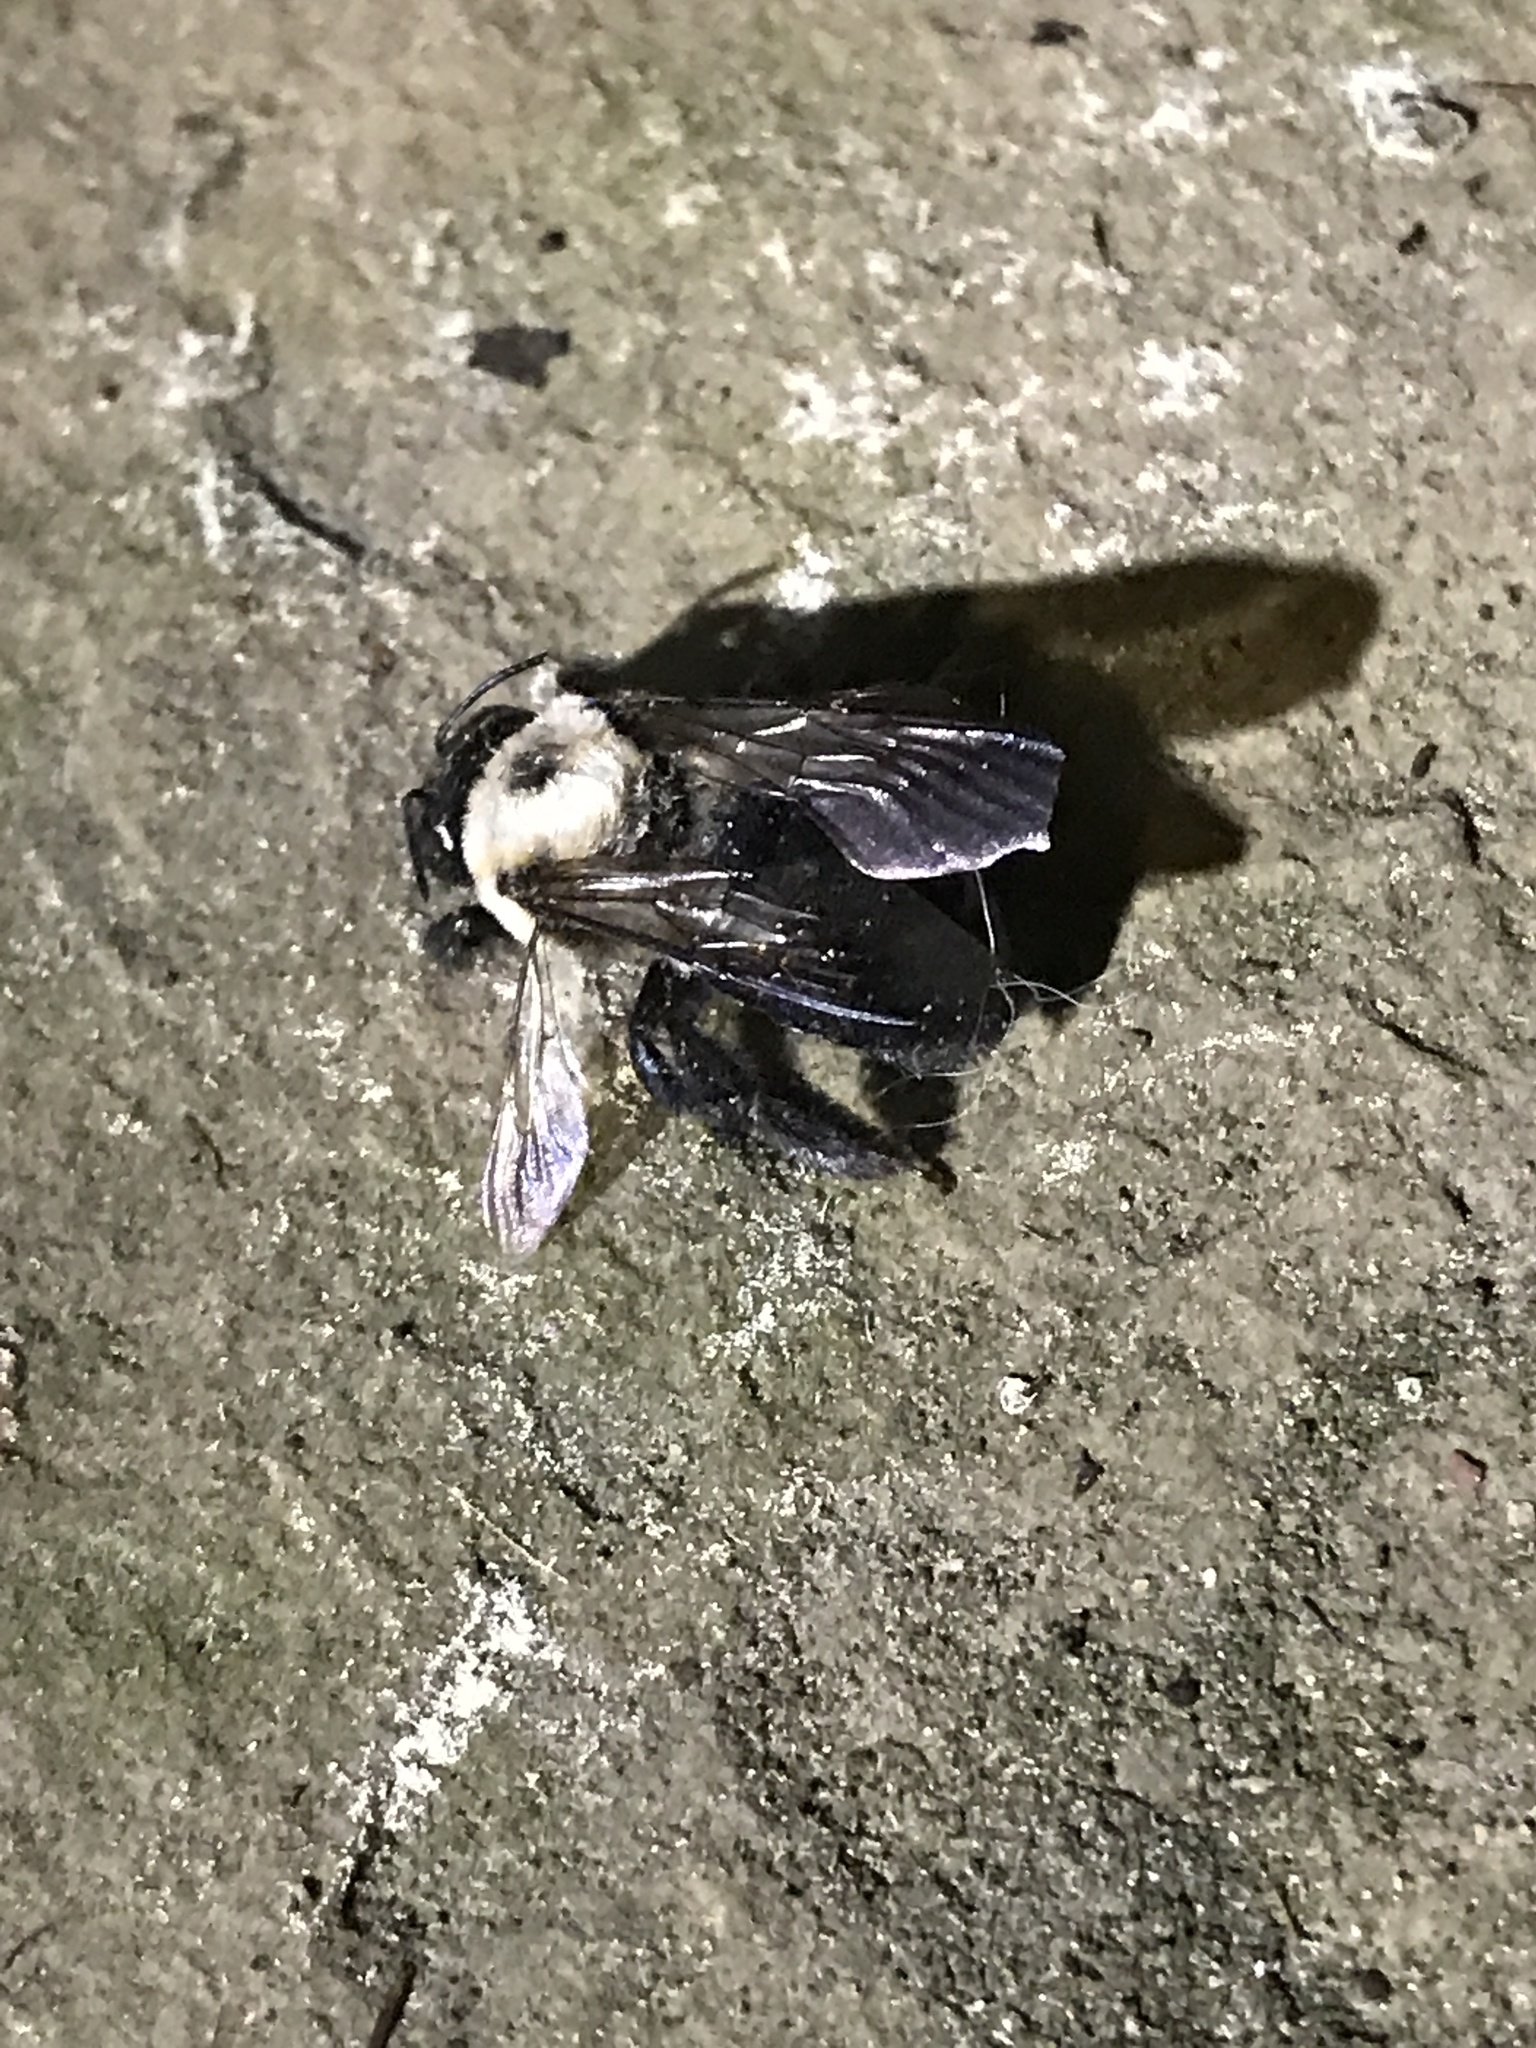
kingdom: Animalia
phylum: Arthropoda
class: Insecta
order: Hymenoptera
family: Apidae
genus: Xylocopa
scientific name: Xylocopa virginica
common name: Carpenter bee
